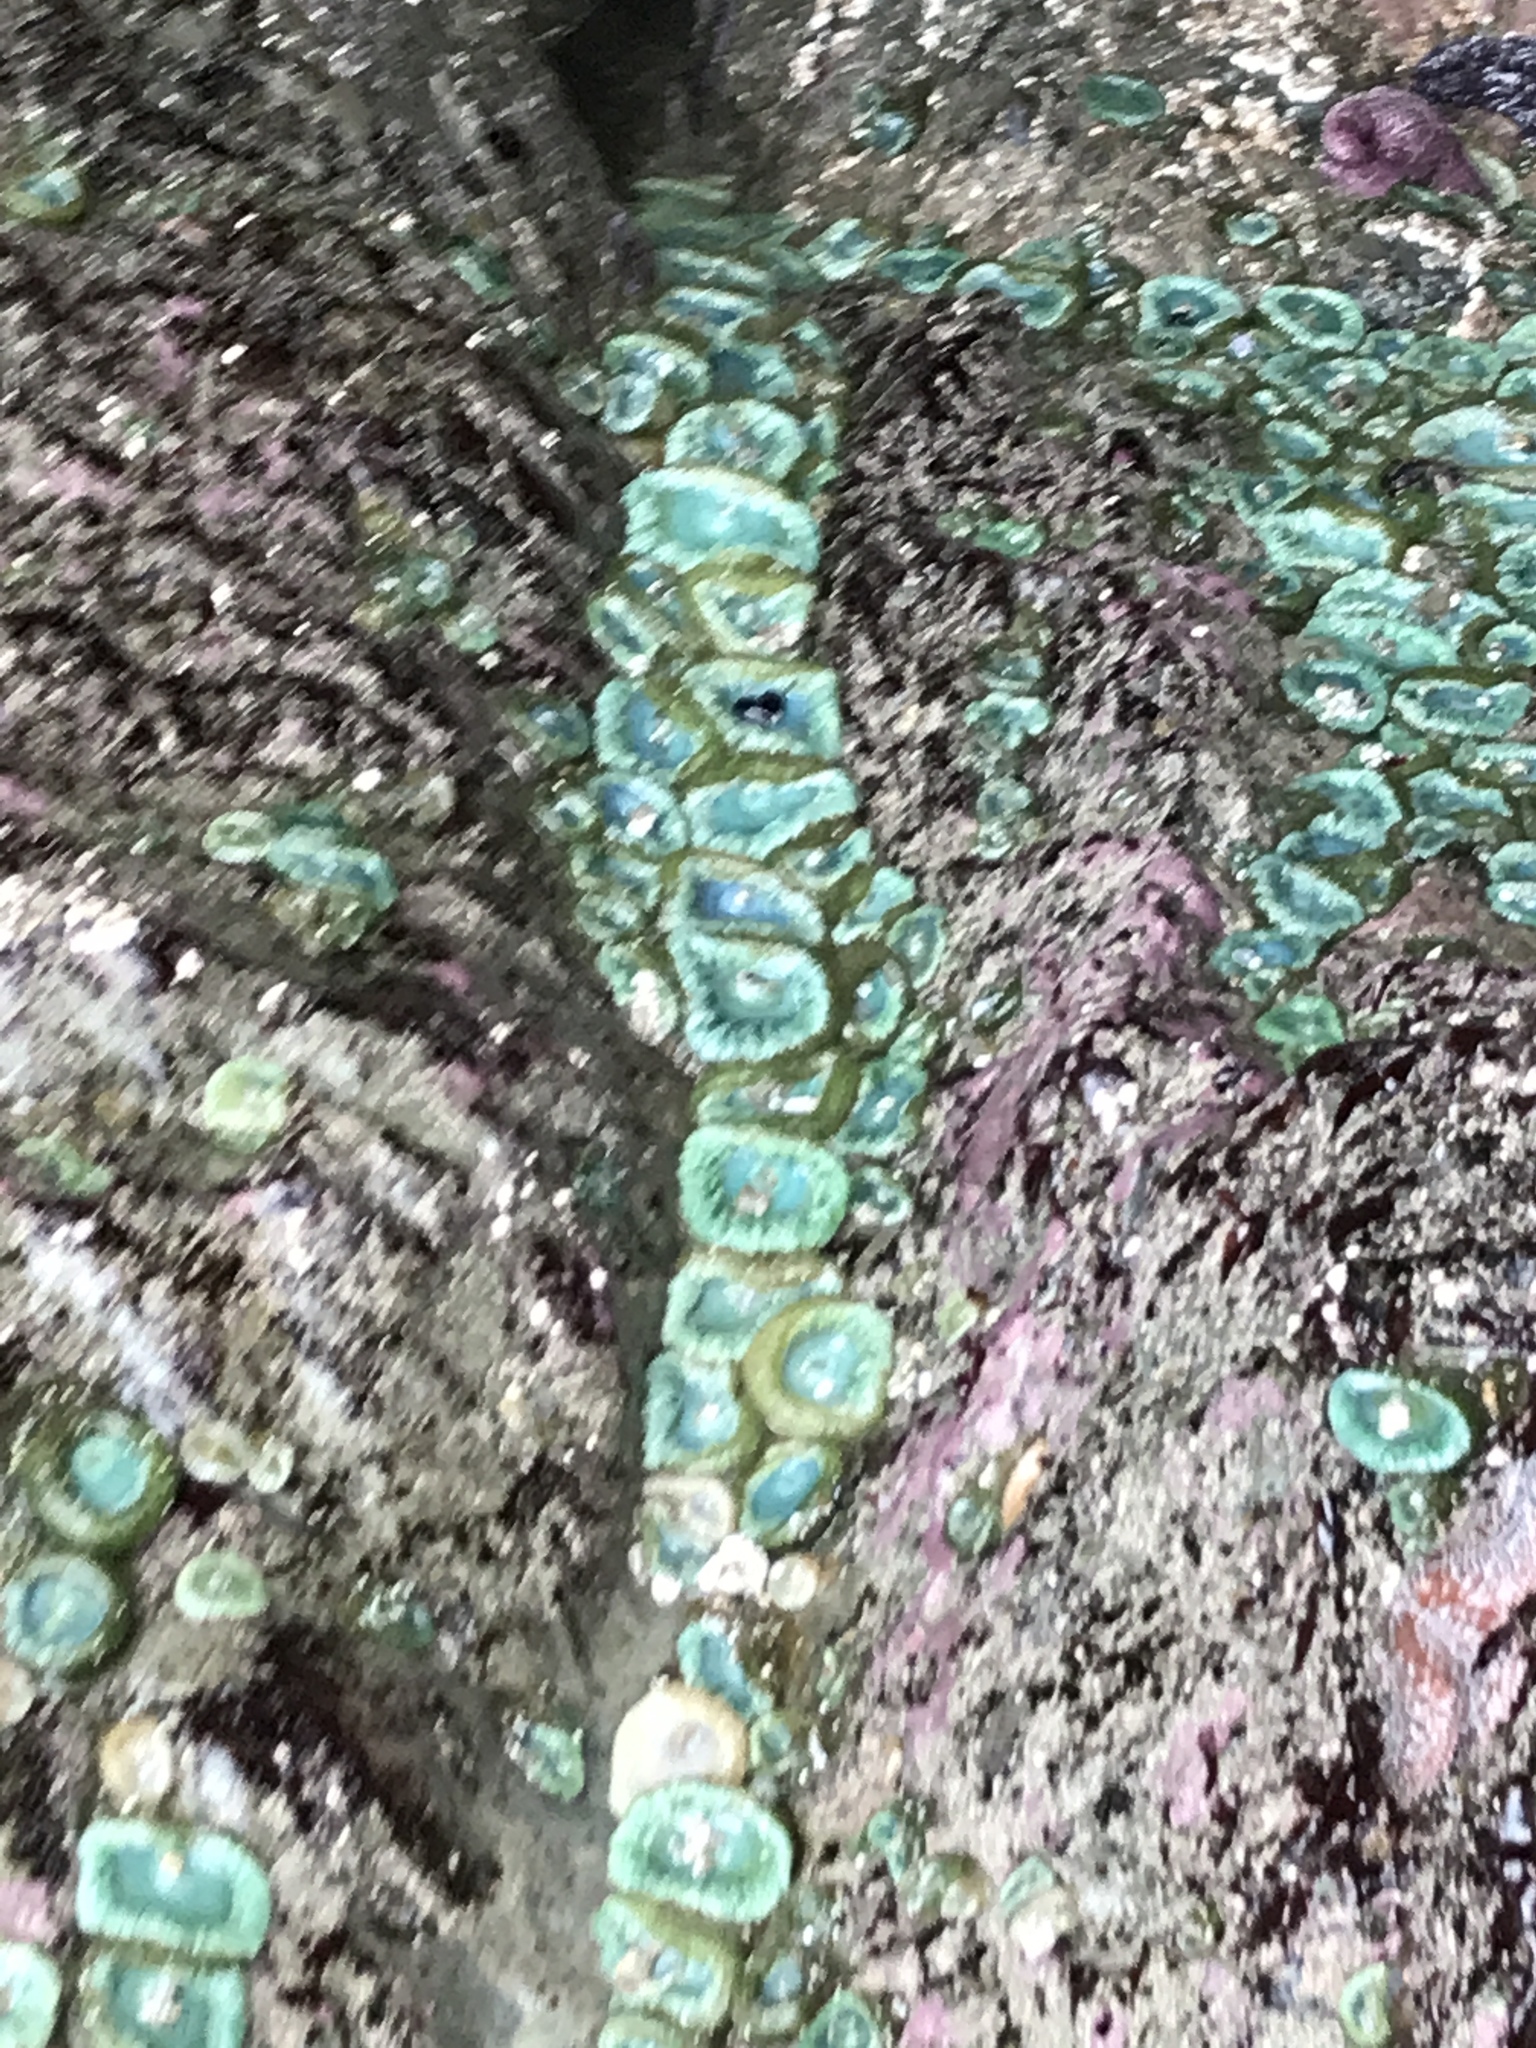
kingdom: Animalia
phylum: Cnidaria
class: Anthozoa
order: Actiniaria
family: Actiniidae
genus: Anthopleura
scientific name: Anthopleura xanthogrammica
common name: Giant green anemone
